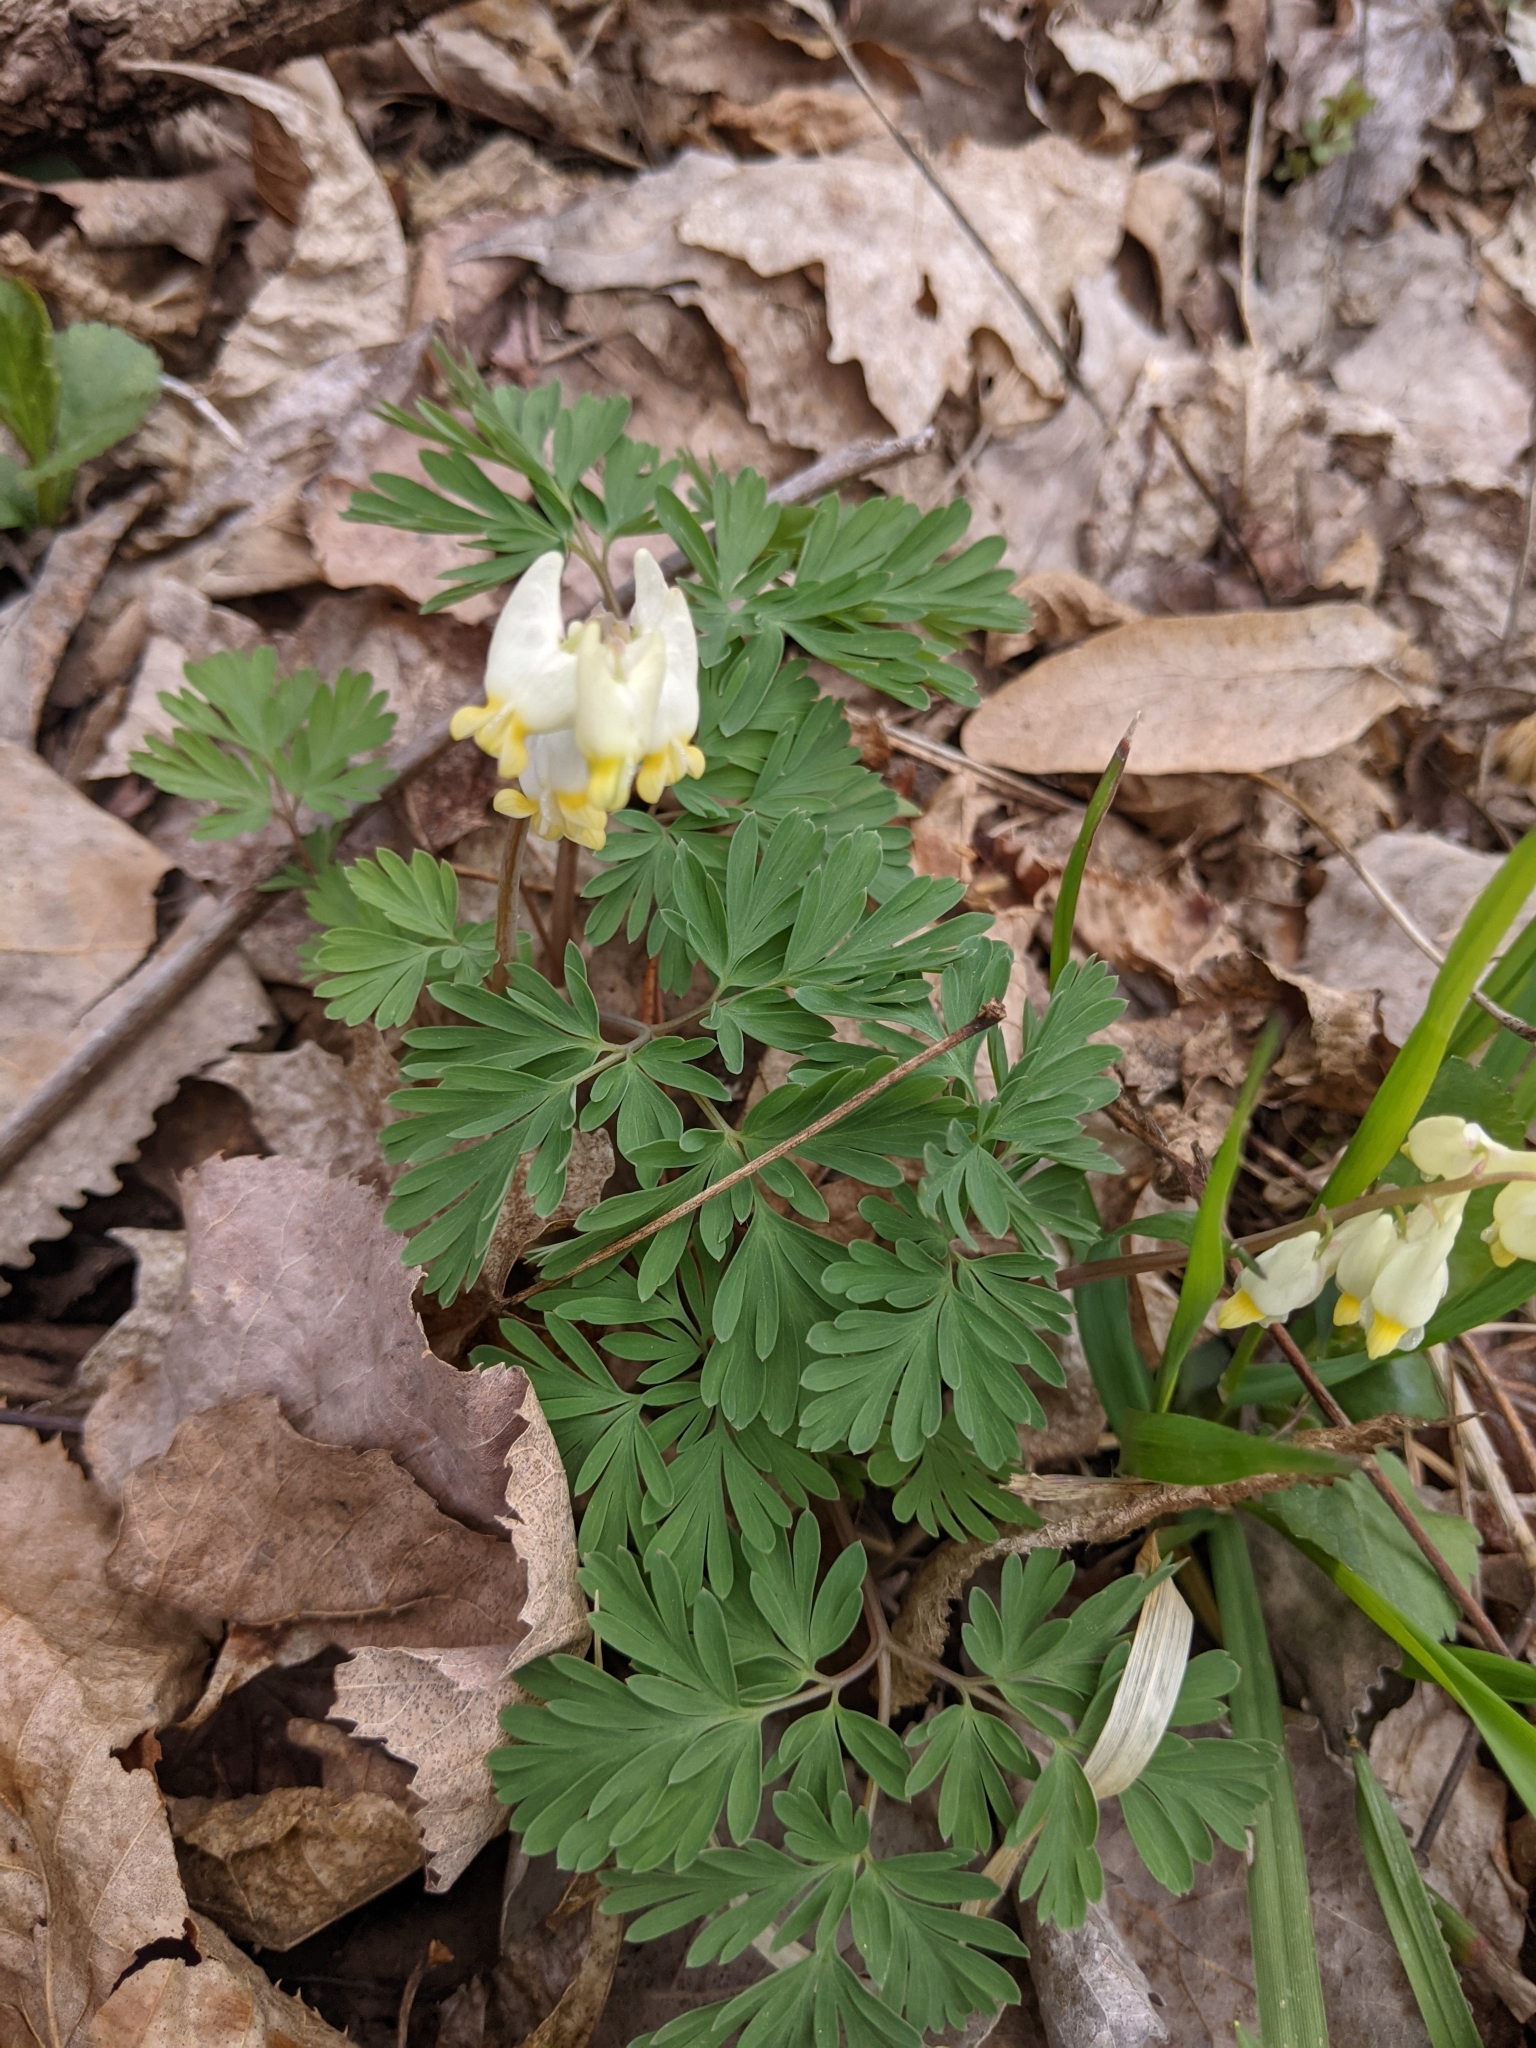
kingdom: Plantae
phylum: Tracheophyta
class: Magnoliopsida
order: Ranunculales
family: Papaveraceae
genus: Dicentra
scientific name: Dicentra cucullaria
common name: Dutchman's breeches
